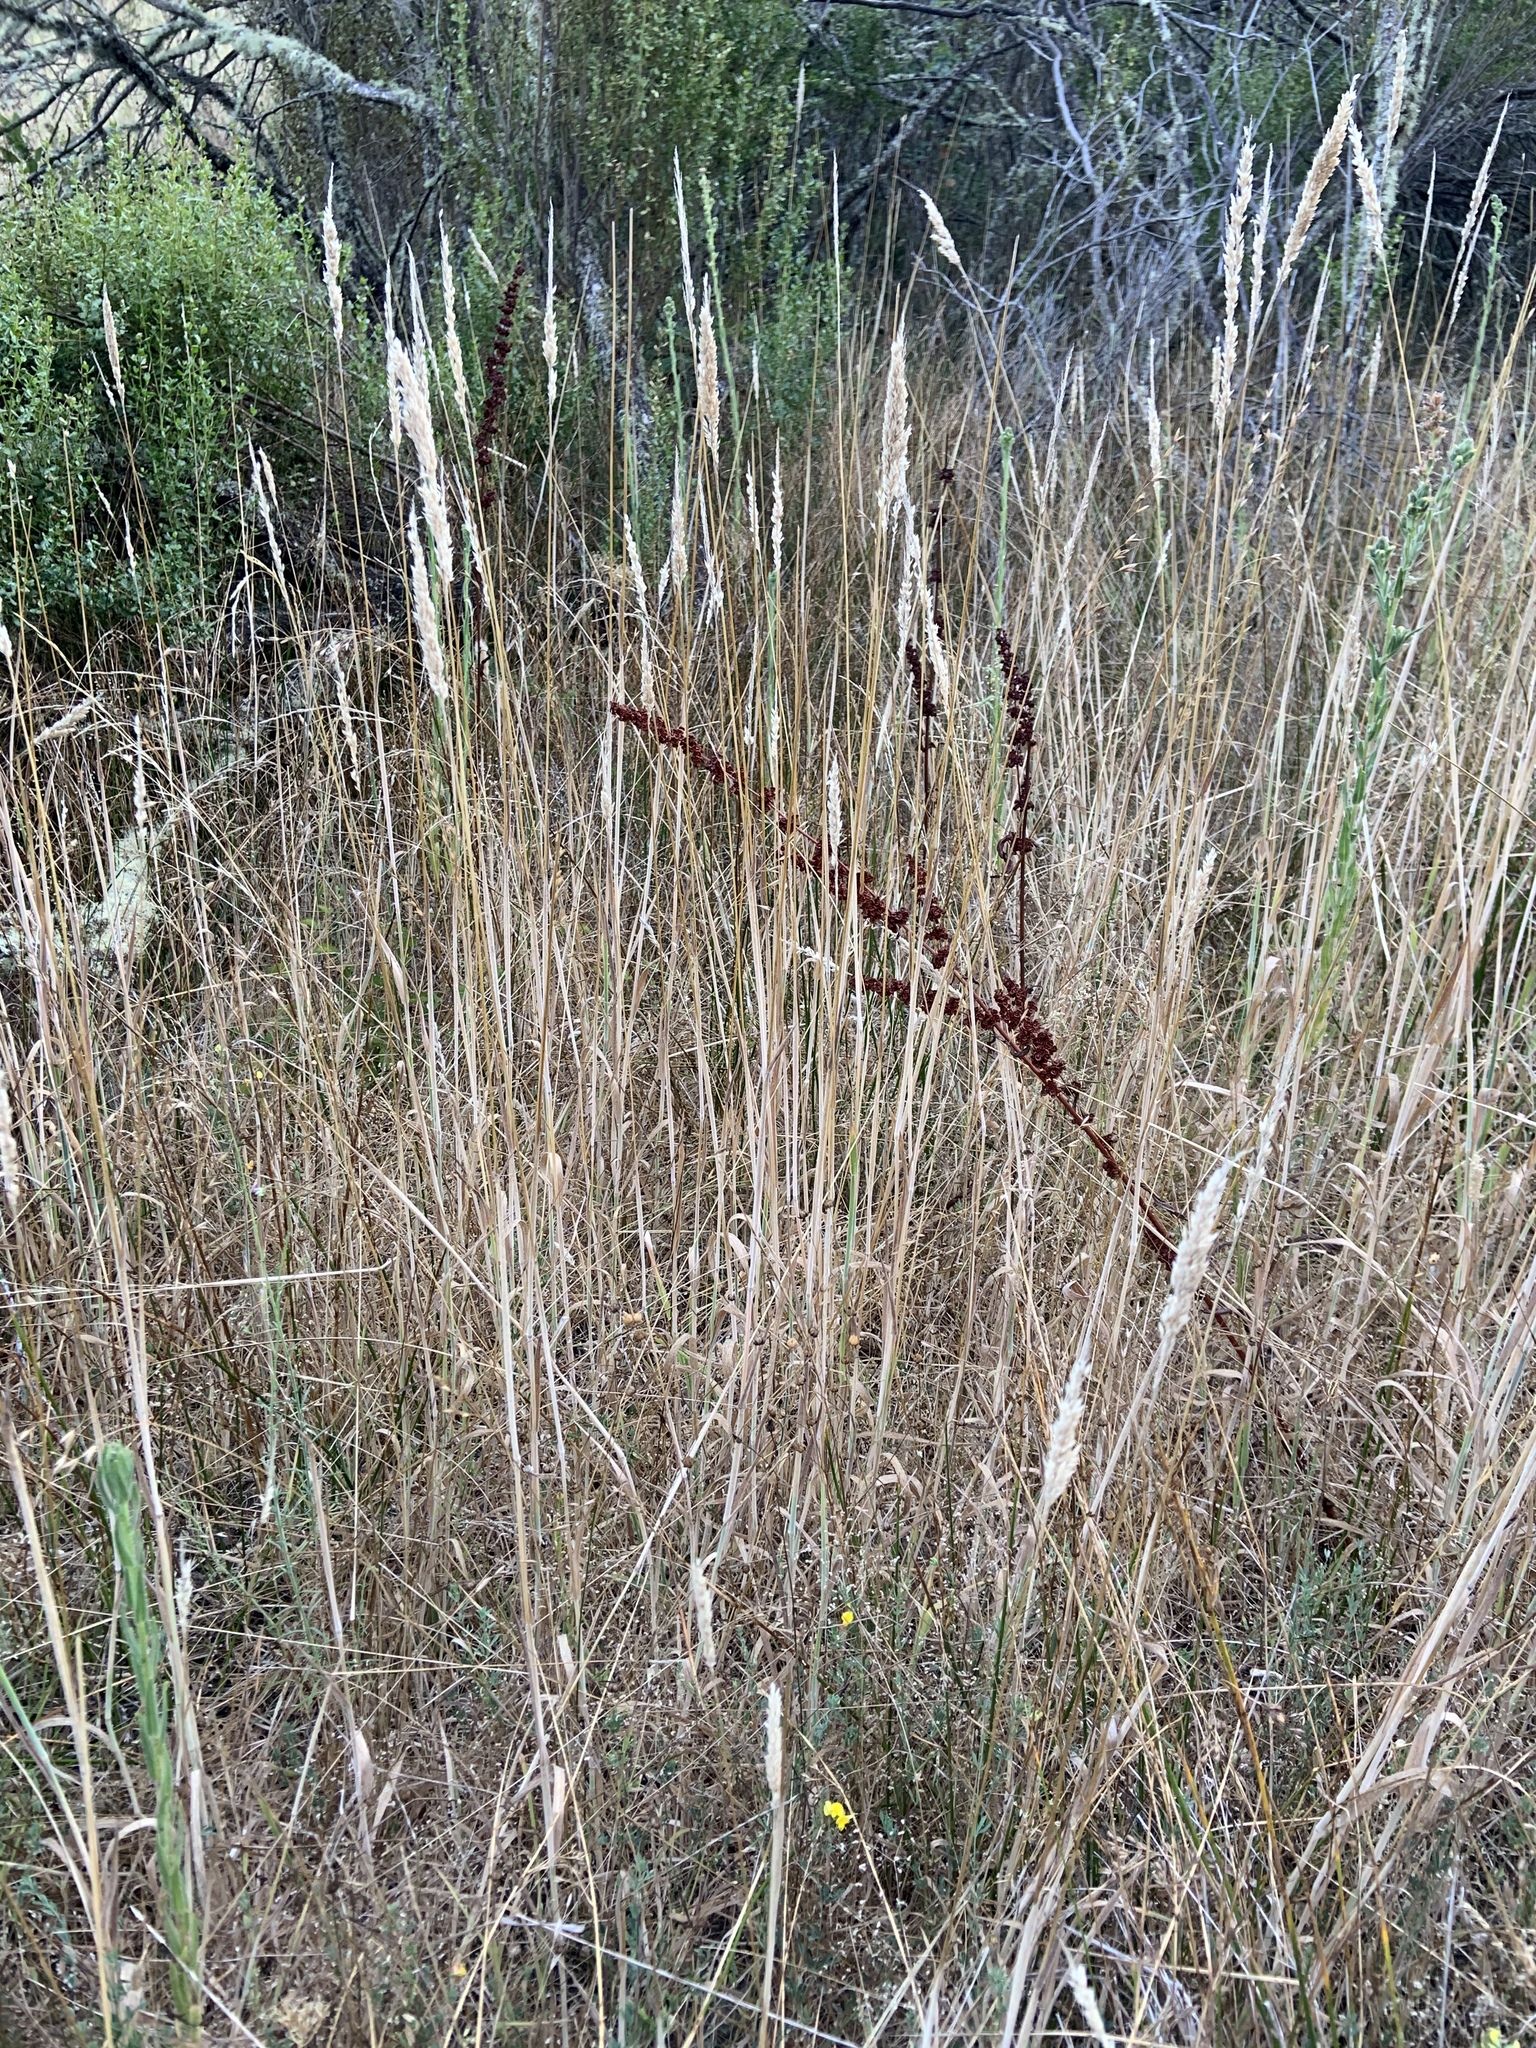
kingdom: Plantae
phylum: Tracheophyta
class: Liliopsida
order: Poales
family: Poaceae
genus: Holcus
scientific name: Holcus lanatus
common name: Yorkshire-fog
